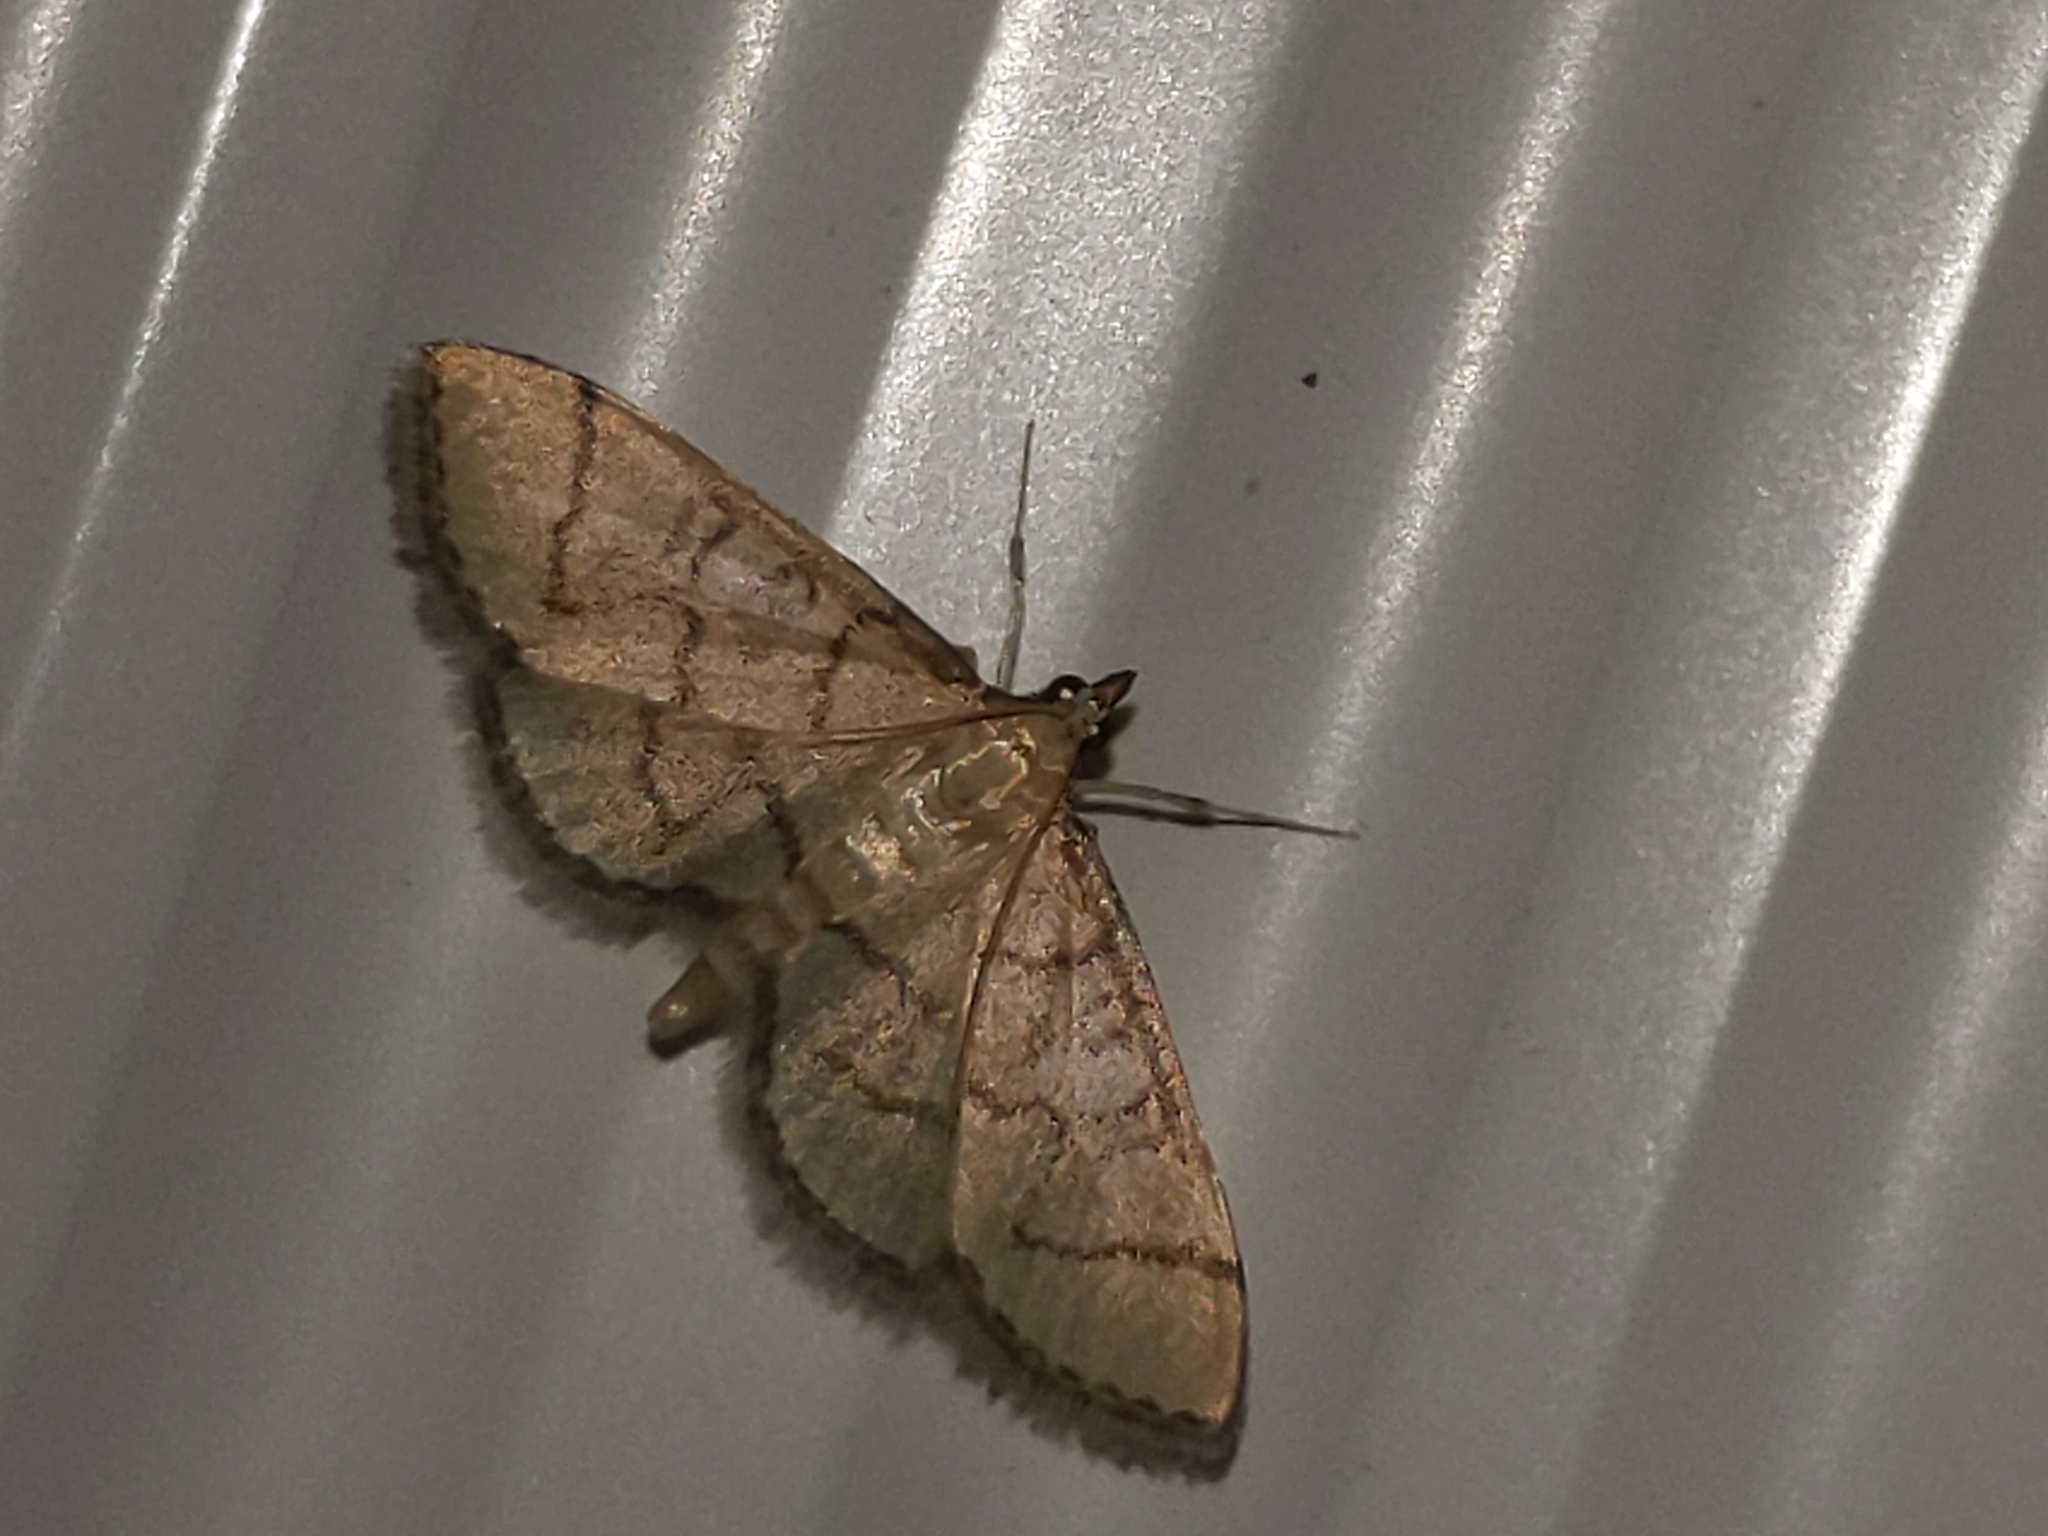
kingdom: Animalia
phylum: Arthropoda
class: Insecta
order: Lepidoptera
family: Crambidae
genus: Lamprosema
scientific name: Lamprosema Blepharomastix ranalis
